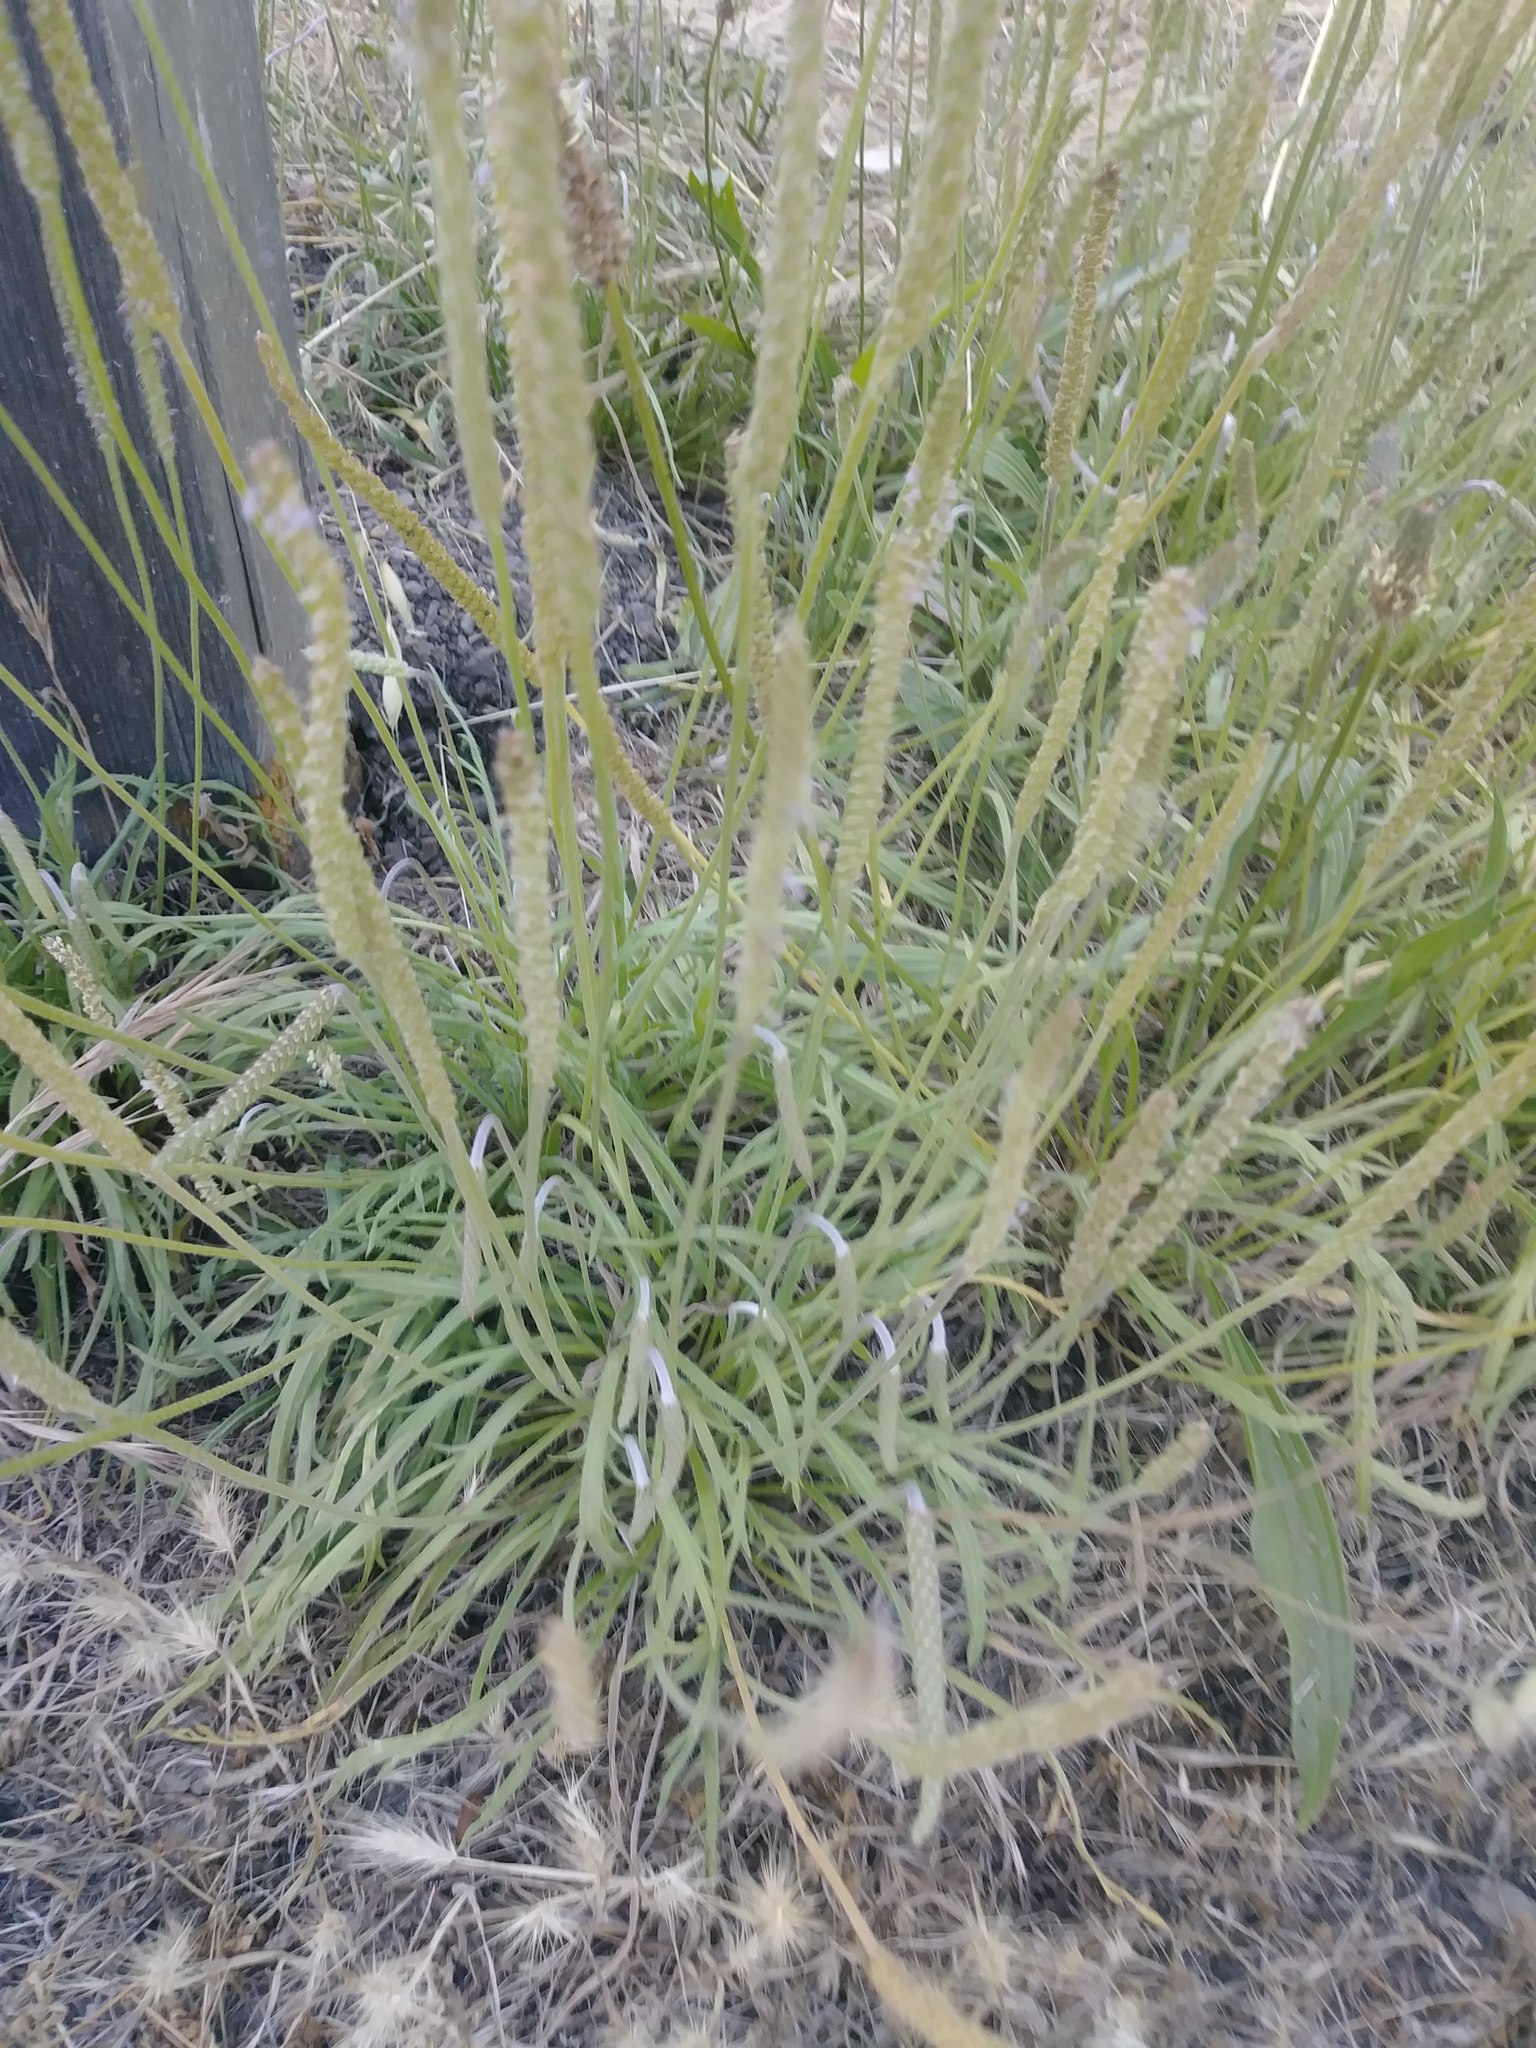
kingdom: Plantae
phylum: Tracheophyta
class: Magnoliopsida
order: Lamiales
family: Plantaginaceae
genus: Plantago
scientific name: Plantago coronopus
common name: Buck's-horn plantain
